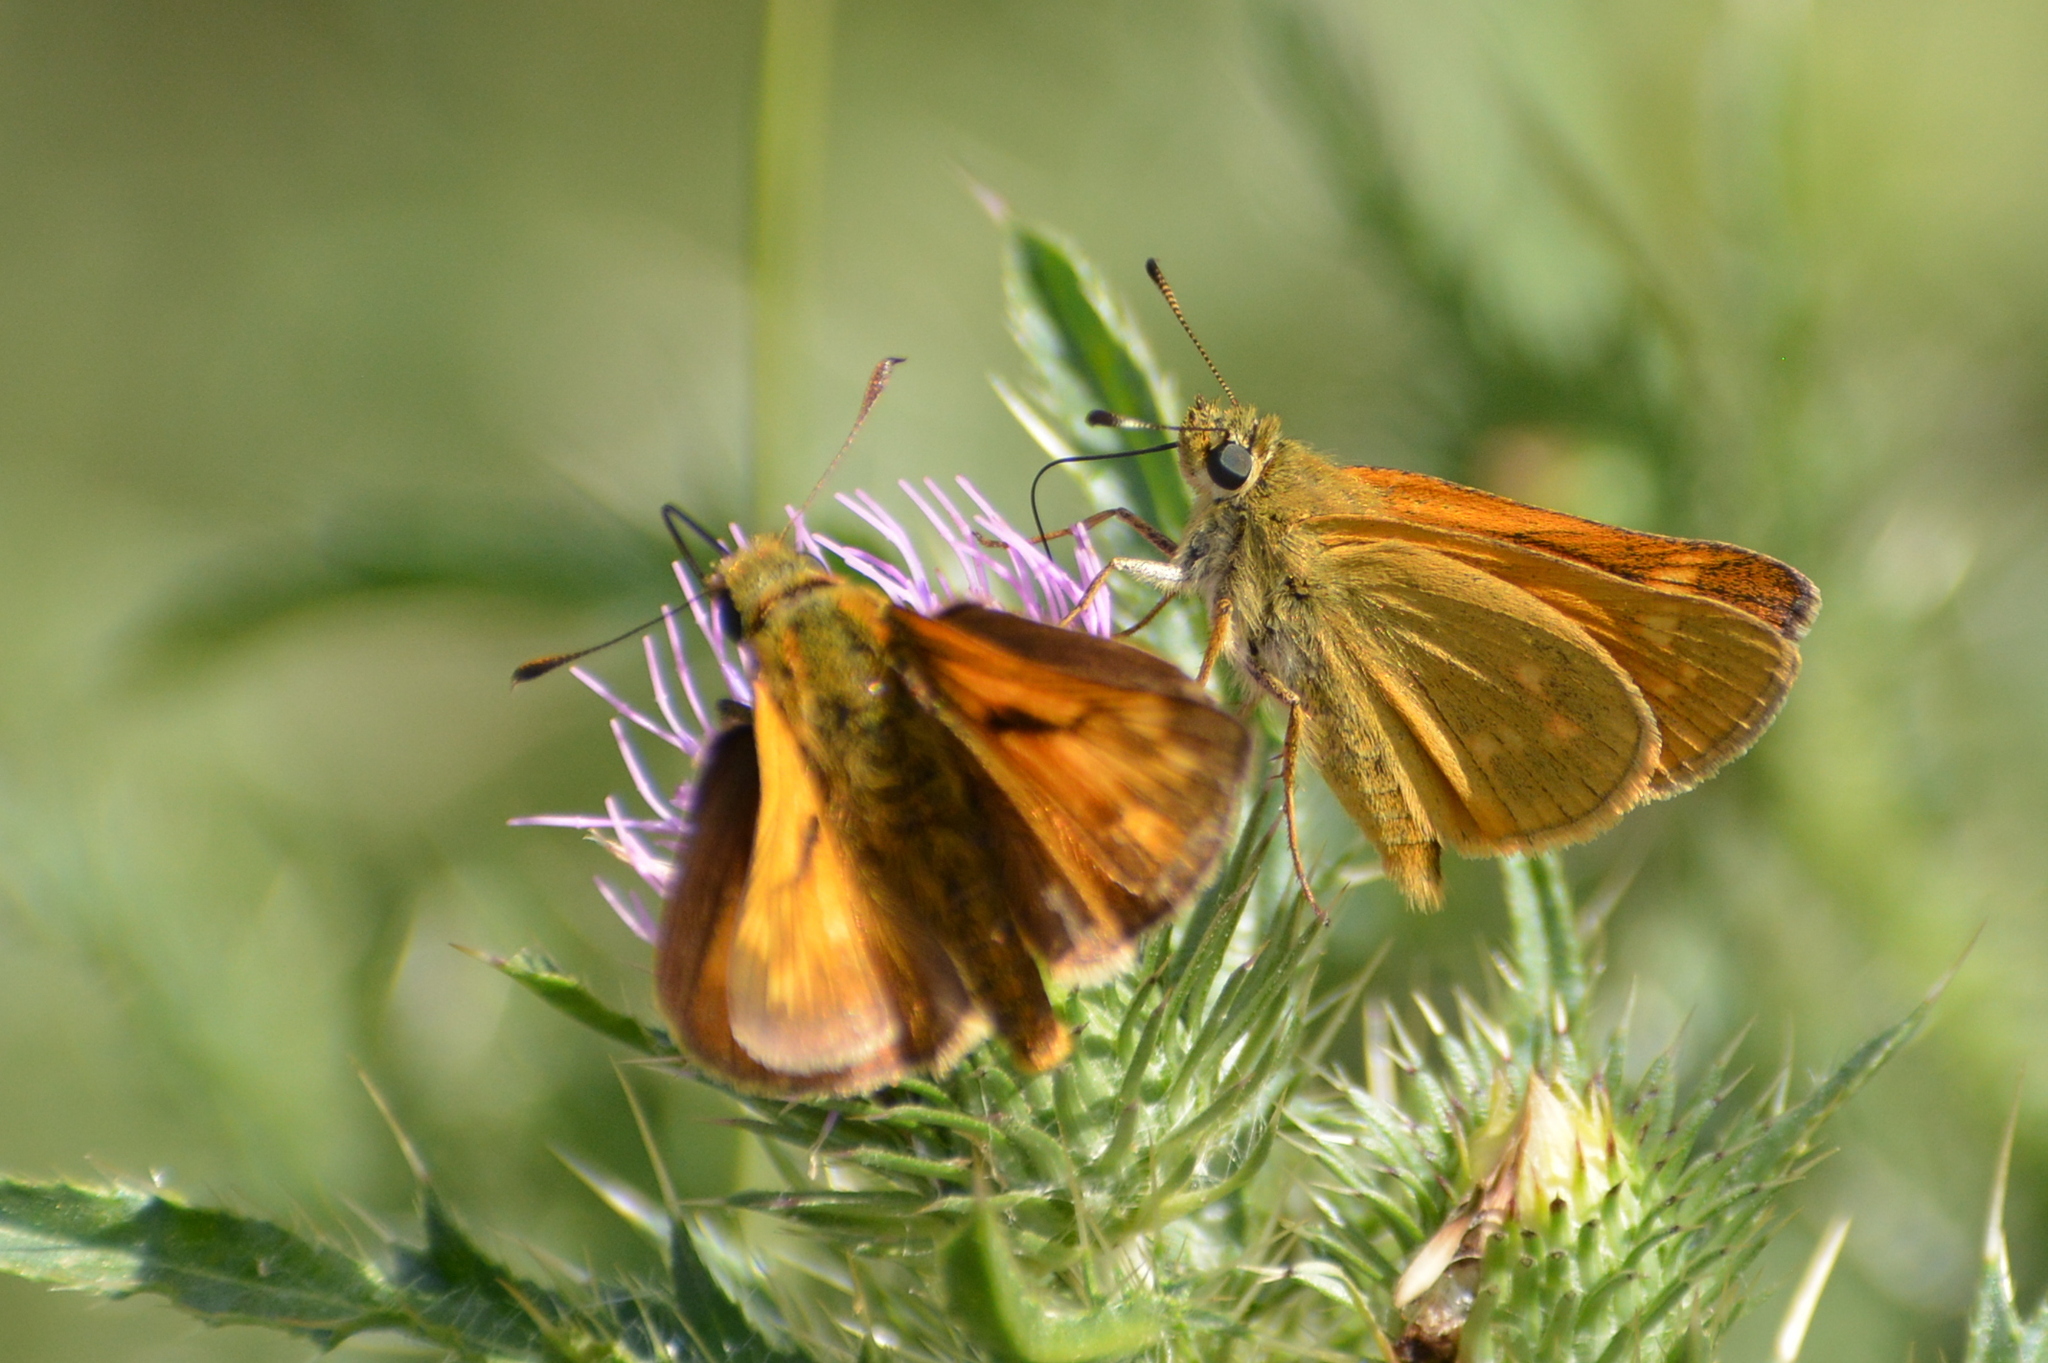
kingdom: Animalia
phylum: Arthropoda
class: Insecta
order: Lepidoptera
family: Hesperiidae
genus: Ochlodes
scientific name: Ochlodes venata
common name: Large skipper
